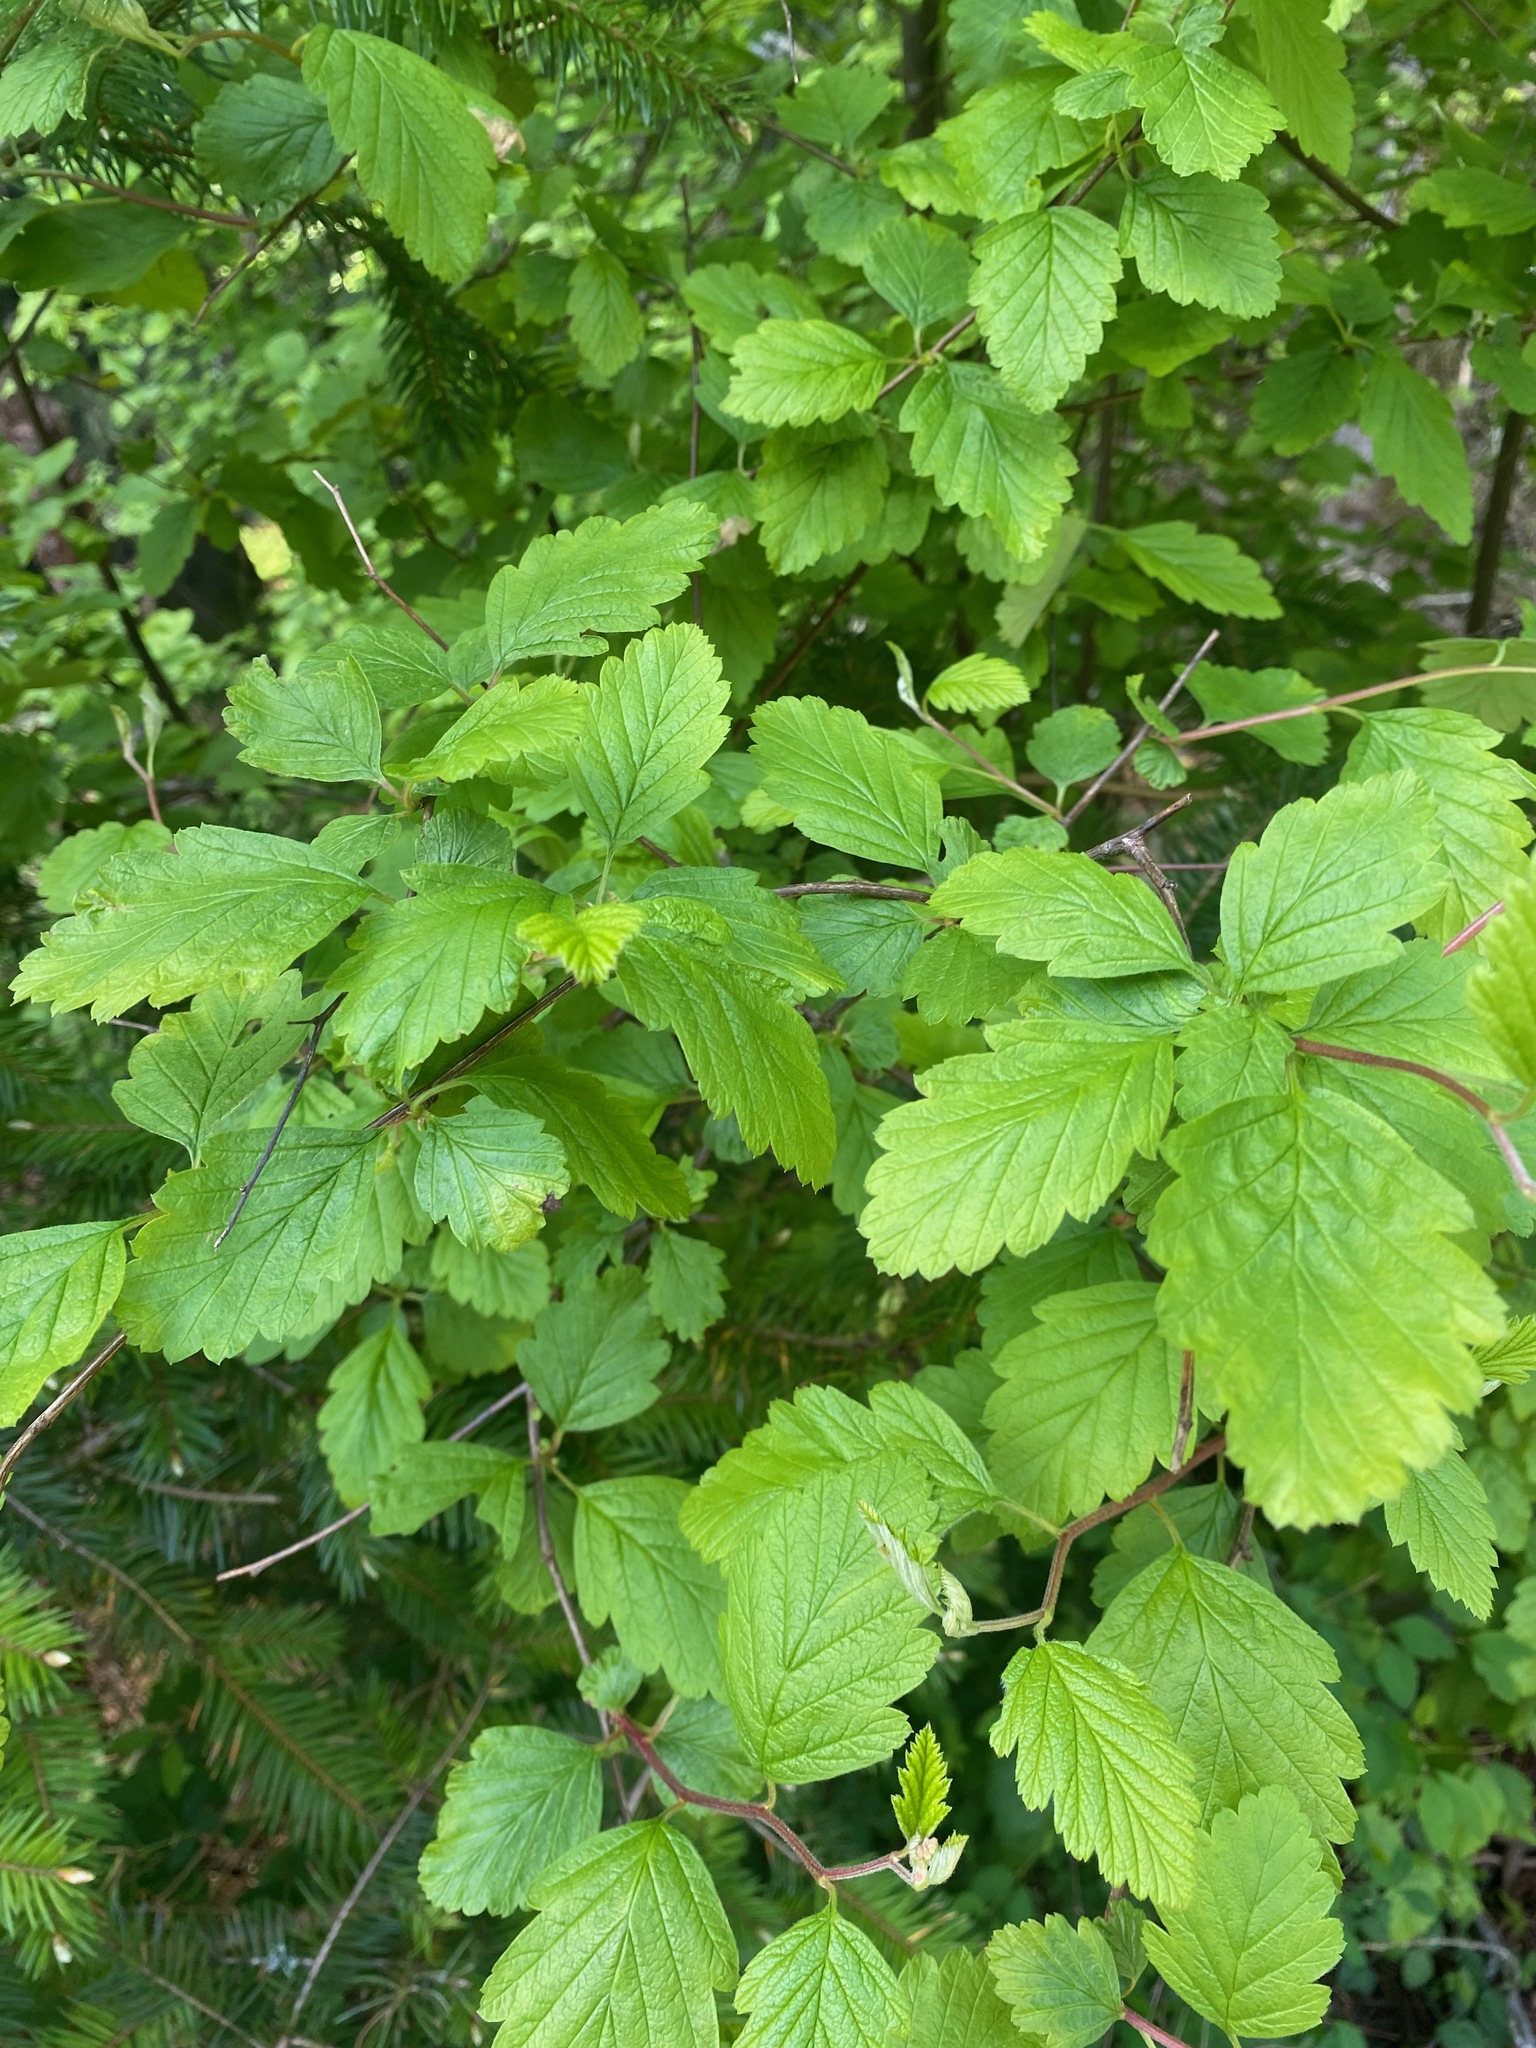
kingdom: Plantae
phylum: Tracheophyta
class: Magnoliopsida
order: Rosales
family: Rosaceae
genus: Holodiscus
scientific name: Holodiscus discolor
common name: Oceanspray
